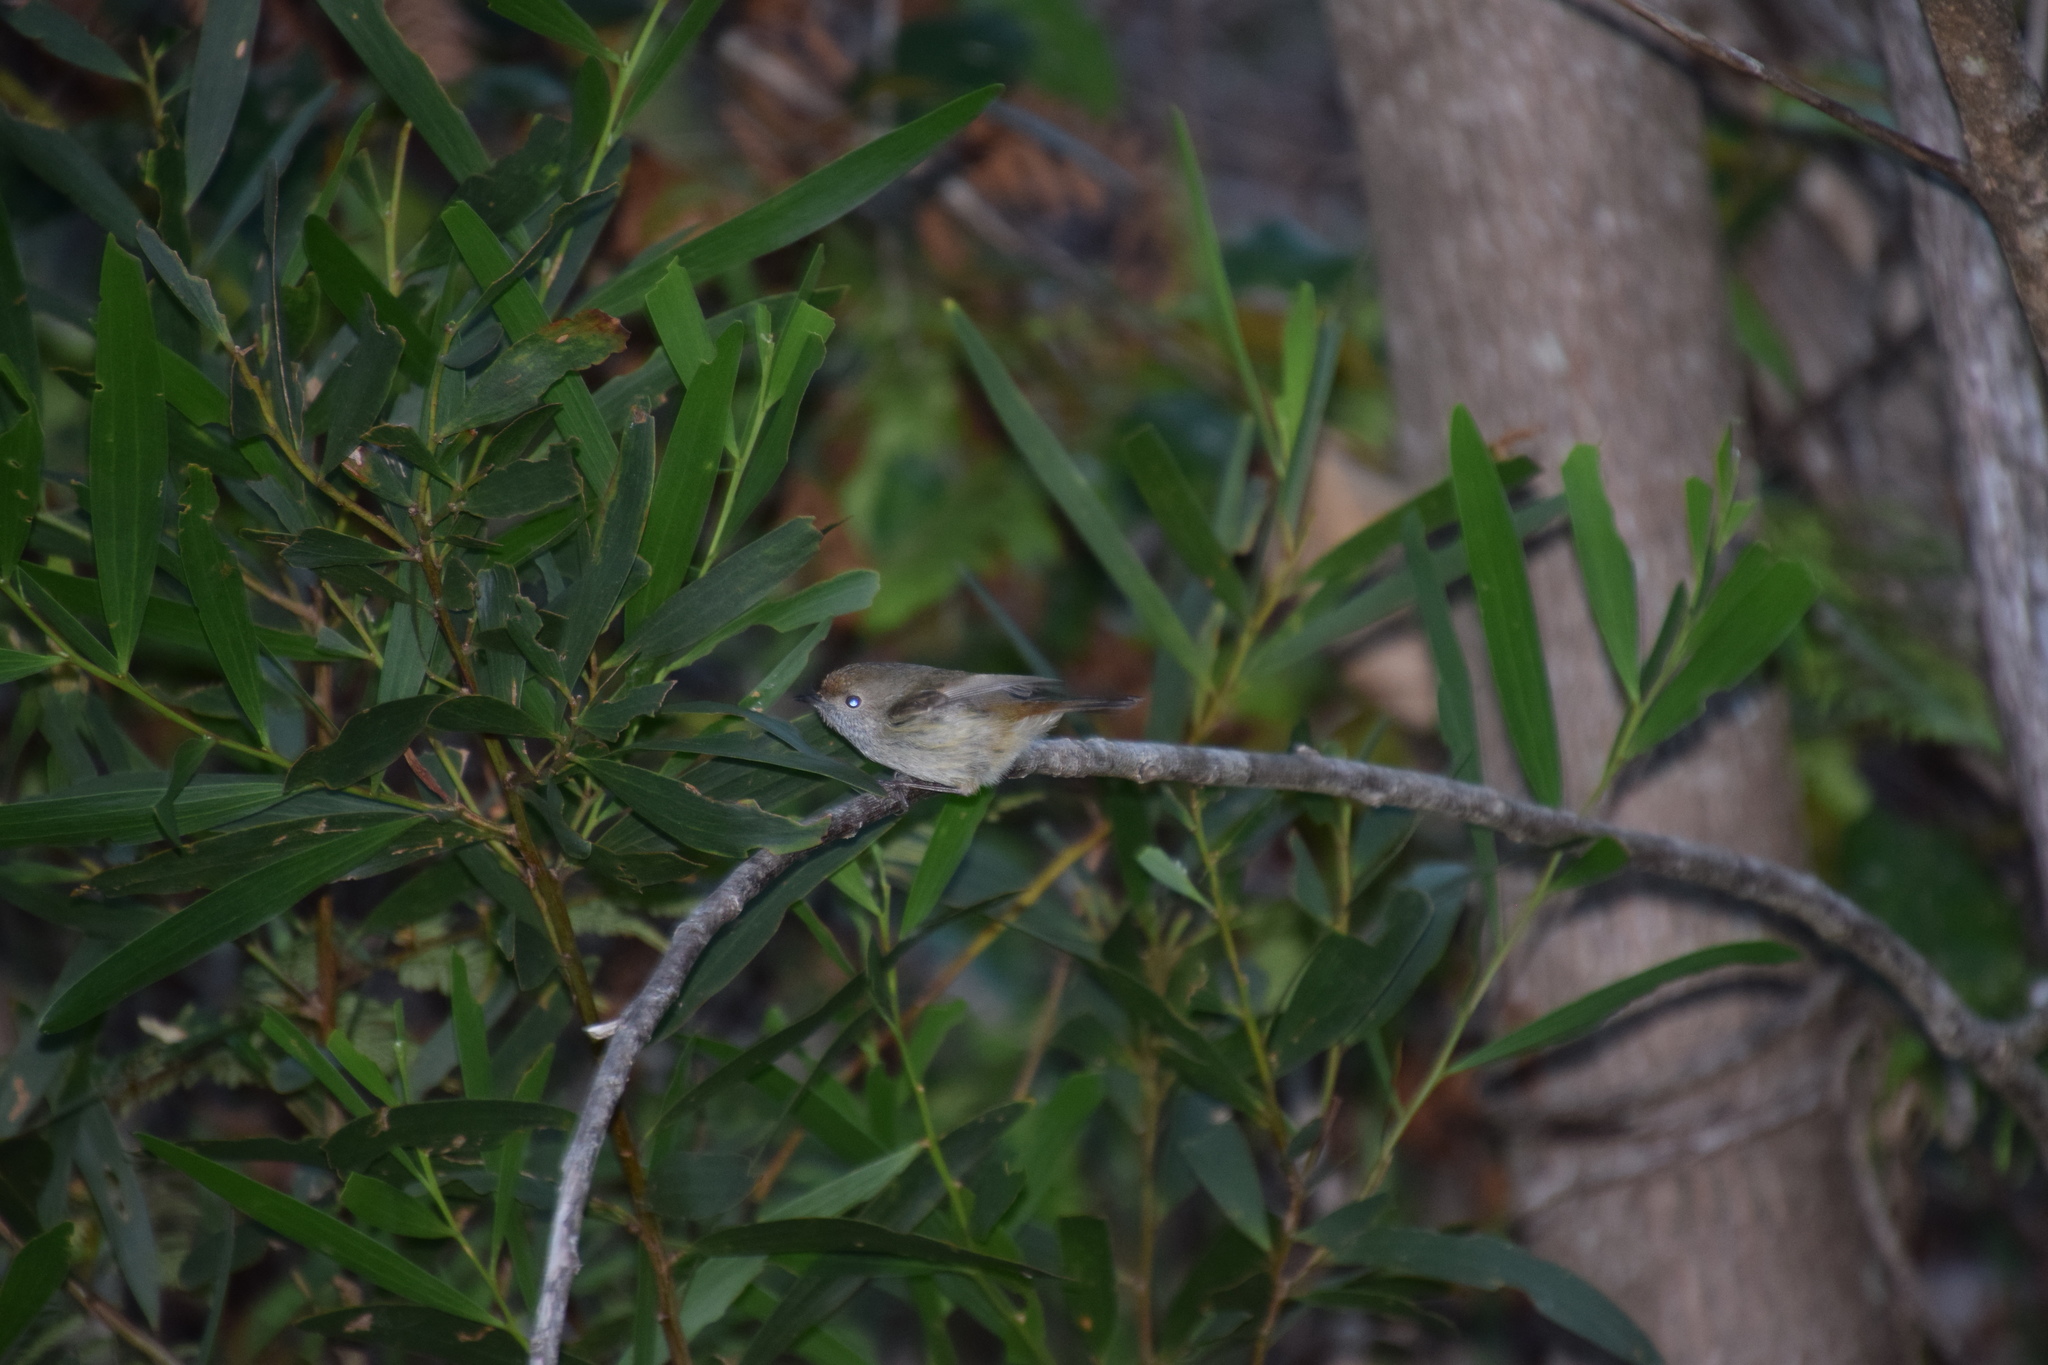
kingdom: Animalia
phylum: Chordata
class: Aves
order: Passeriformes
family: Acanthizidae
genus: Acanthiza
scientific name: Acanthiza pusilla
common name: Brown thornbill
